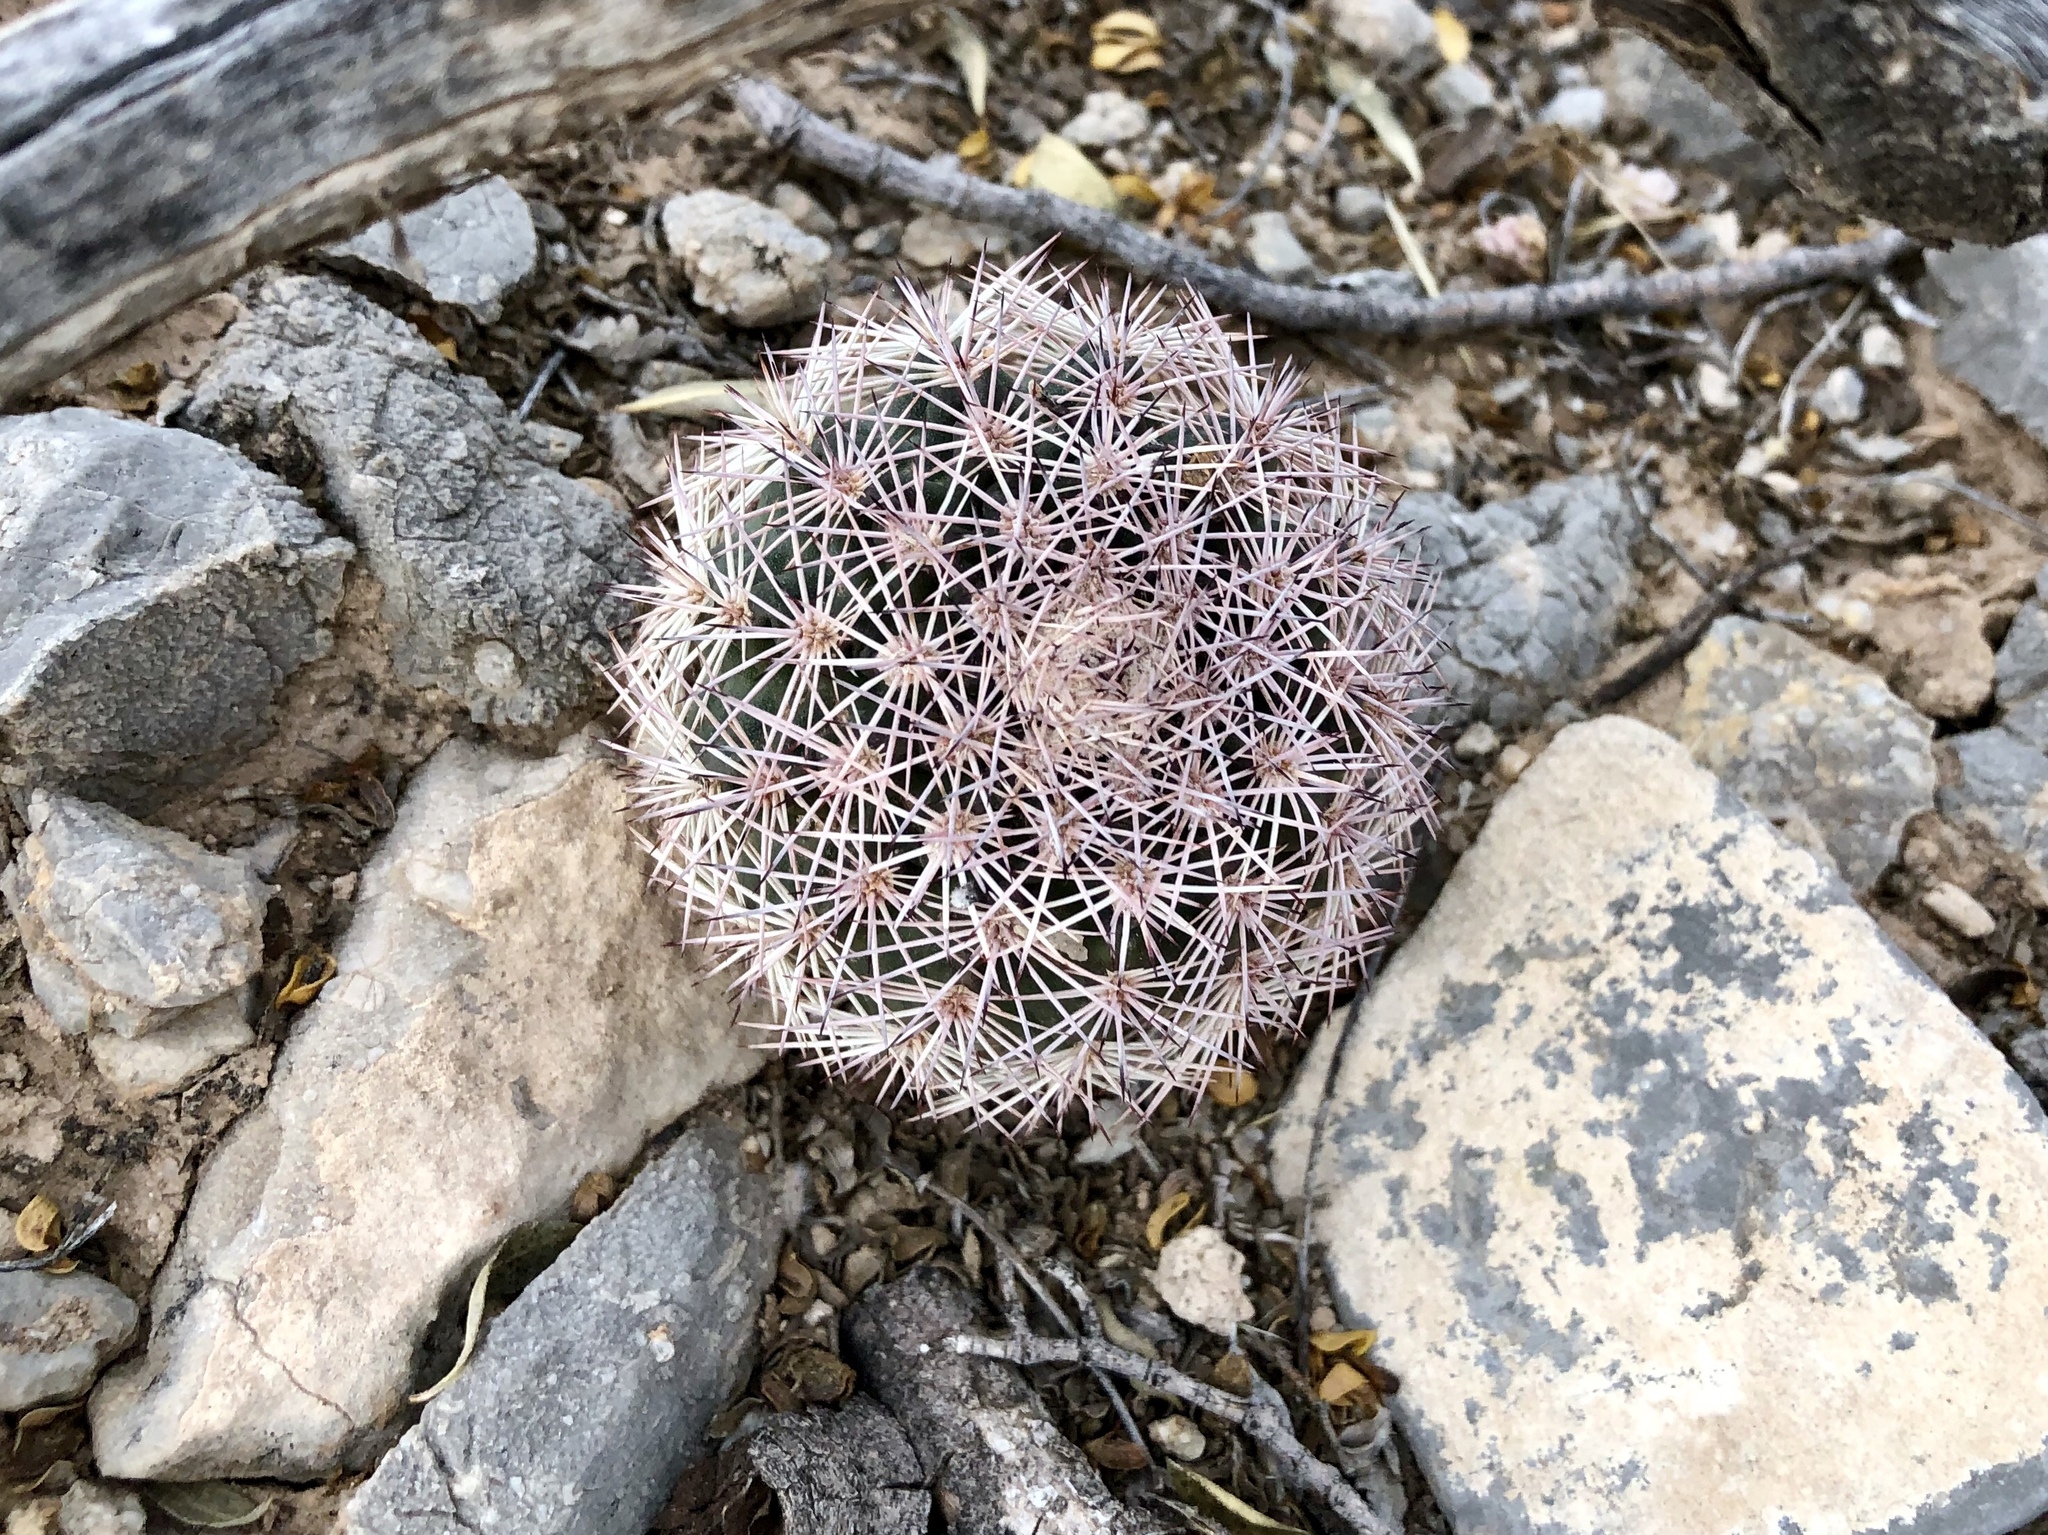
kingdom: Plantae
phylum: Tracheophyta
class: Magnoliopsida
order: Caryophyllales
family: Cactaceae
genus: Echinocereus
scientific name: Echinocereus dasyacanthus
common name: Spiny hedgehog cactus
